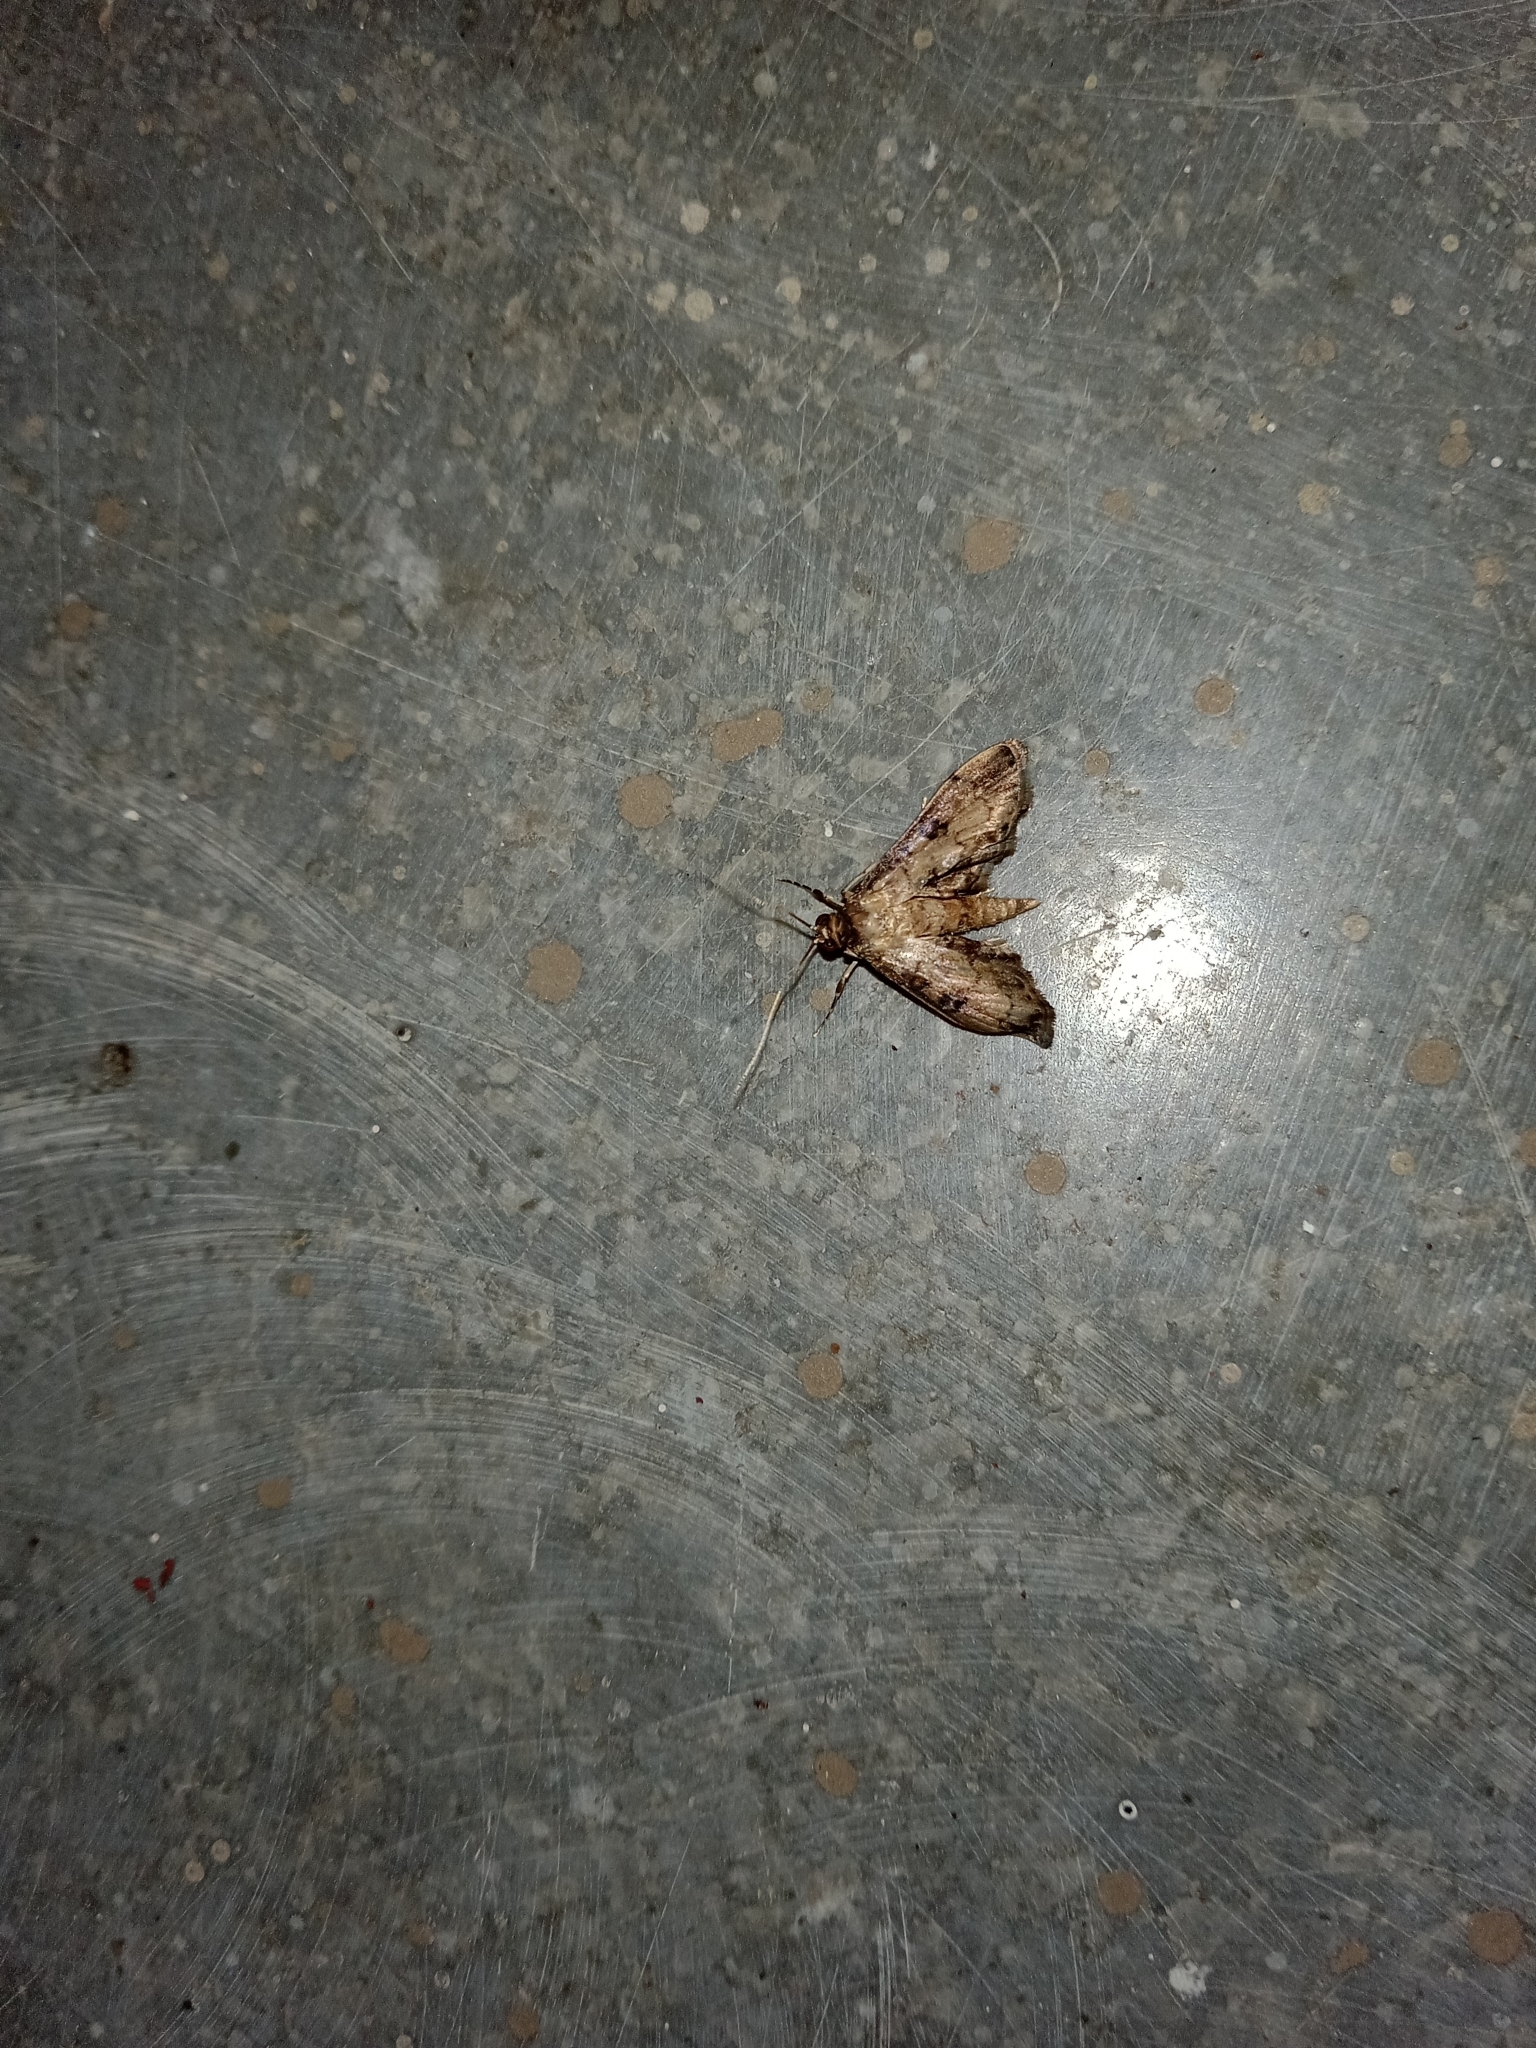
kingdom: Animalia
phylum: Arthropoda
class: Insecta
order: Lepidoptera
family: Crambidae
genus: Nacoleia
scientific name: Nacoleia charesalis
